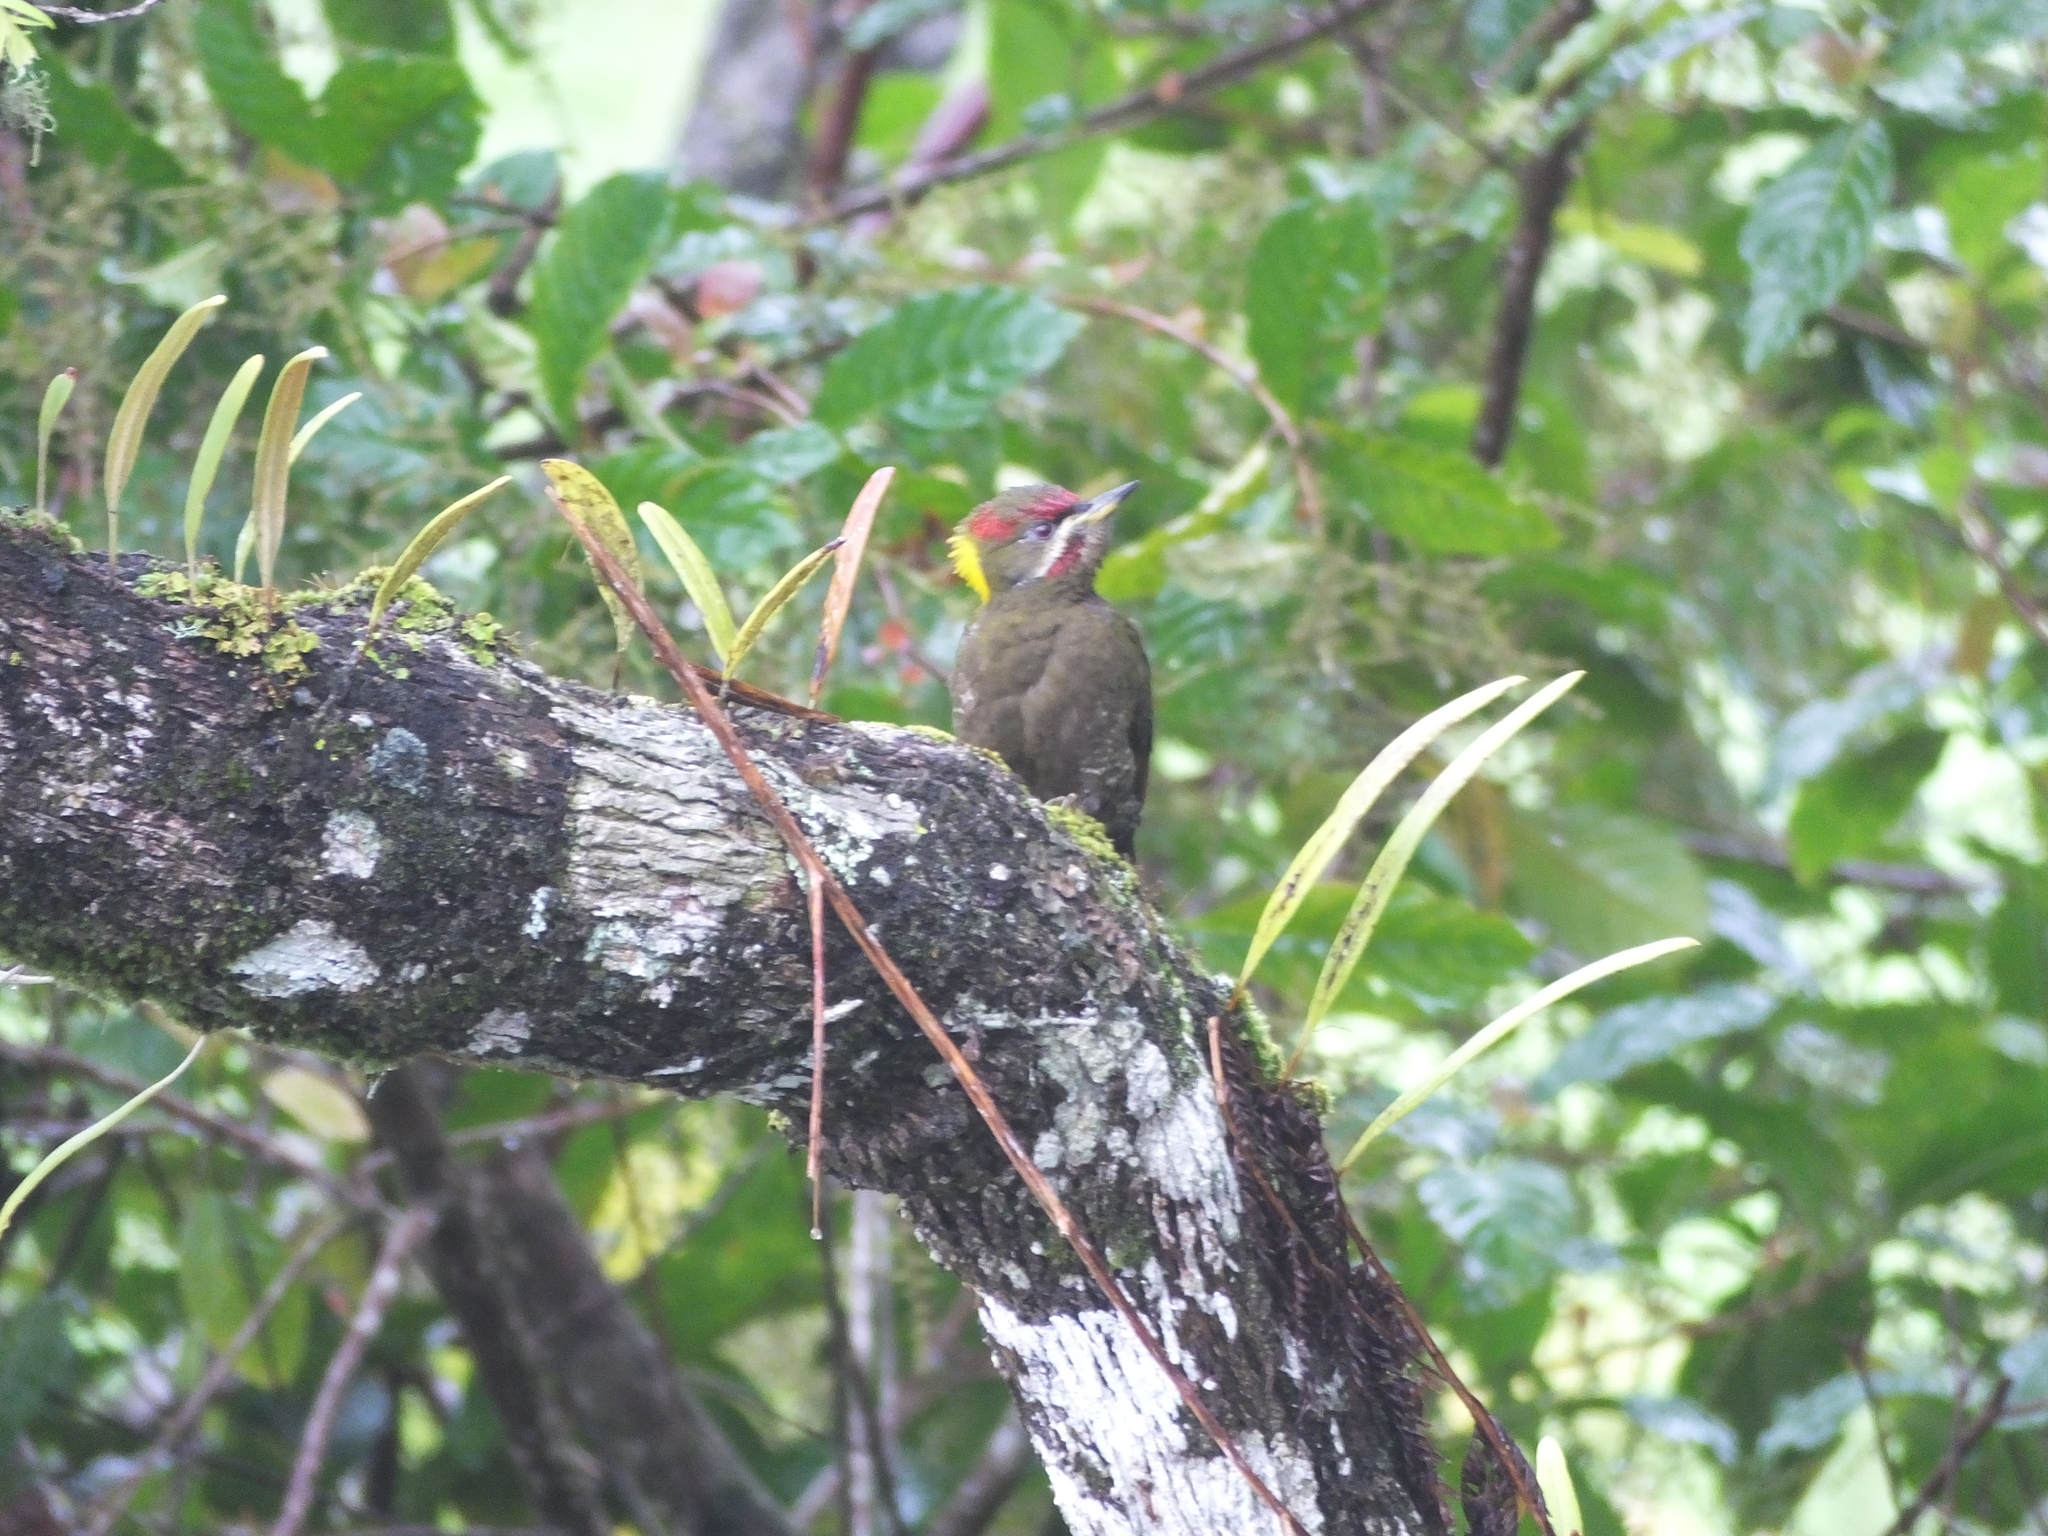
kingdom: Animalia
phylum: Chordata
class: Aves
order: Piciformes
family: Picidae
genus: Picus
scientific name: Picus chlorolophus
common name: Lesser yellownape
